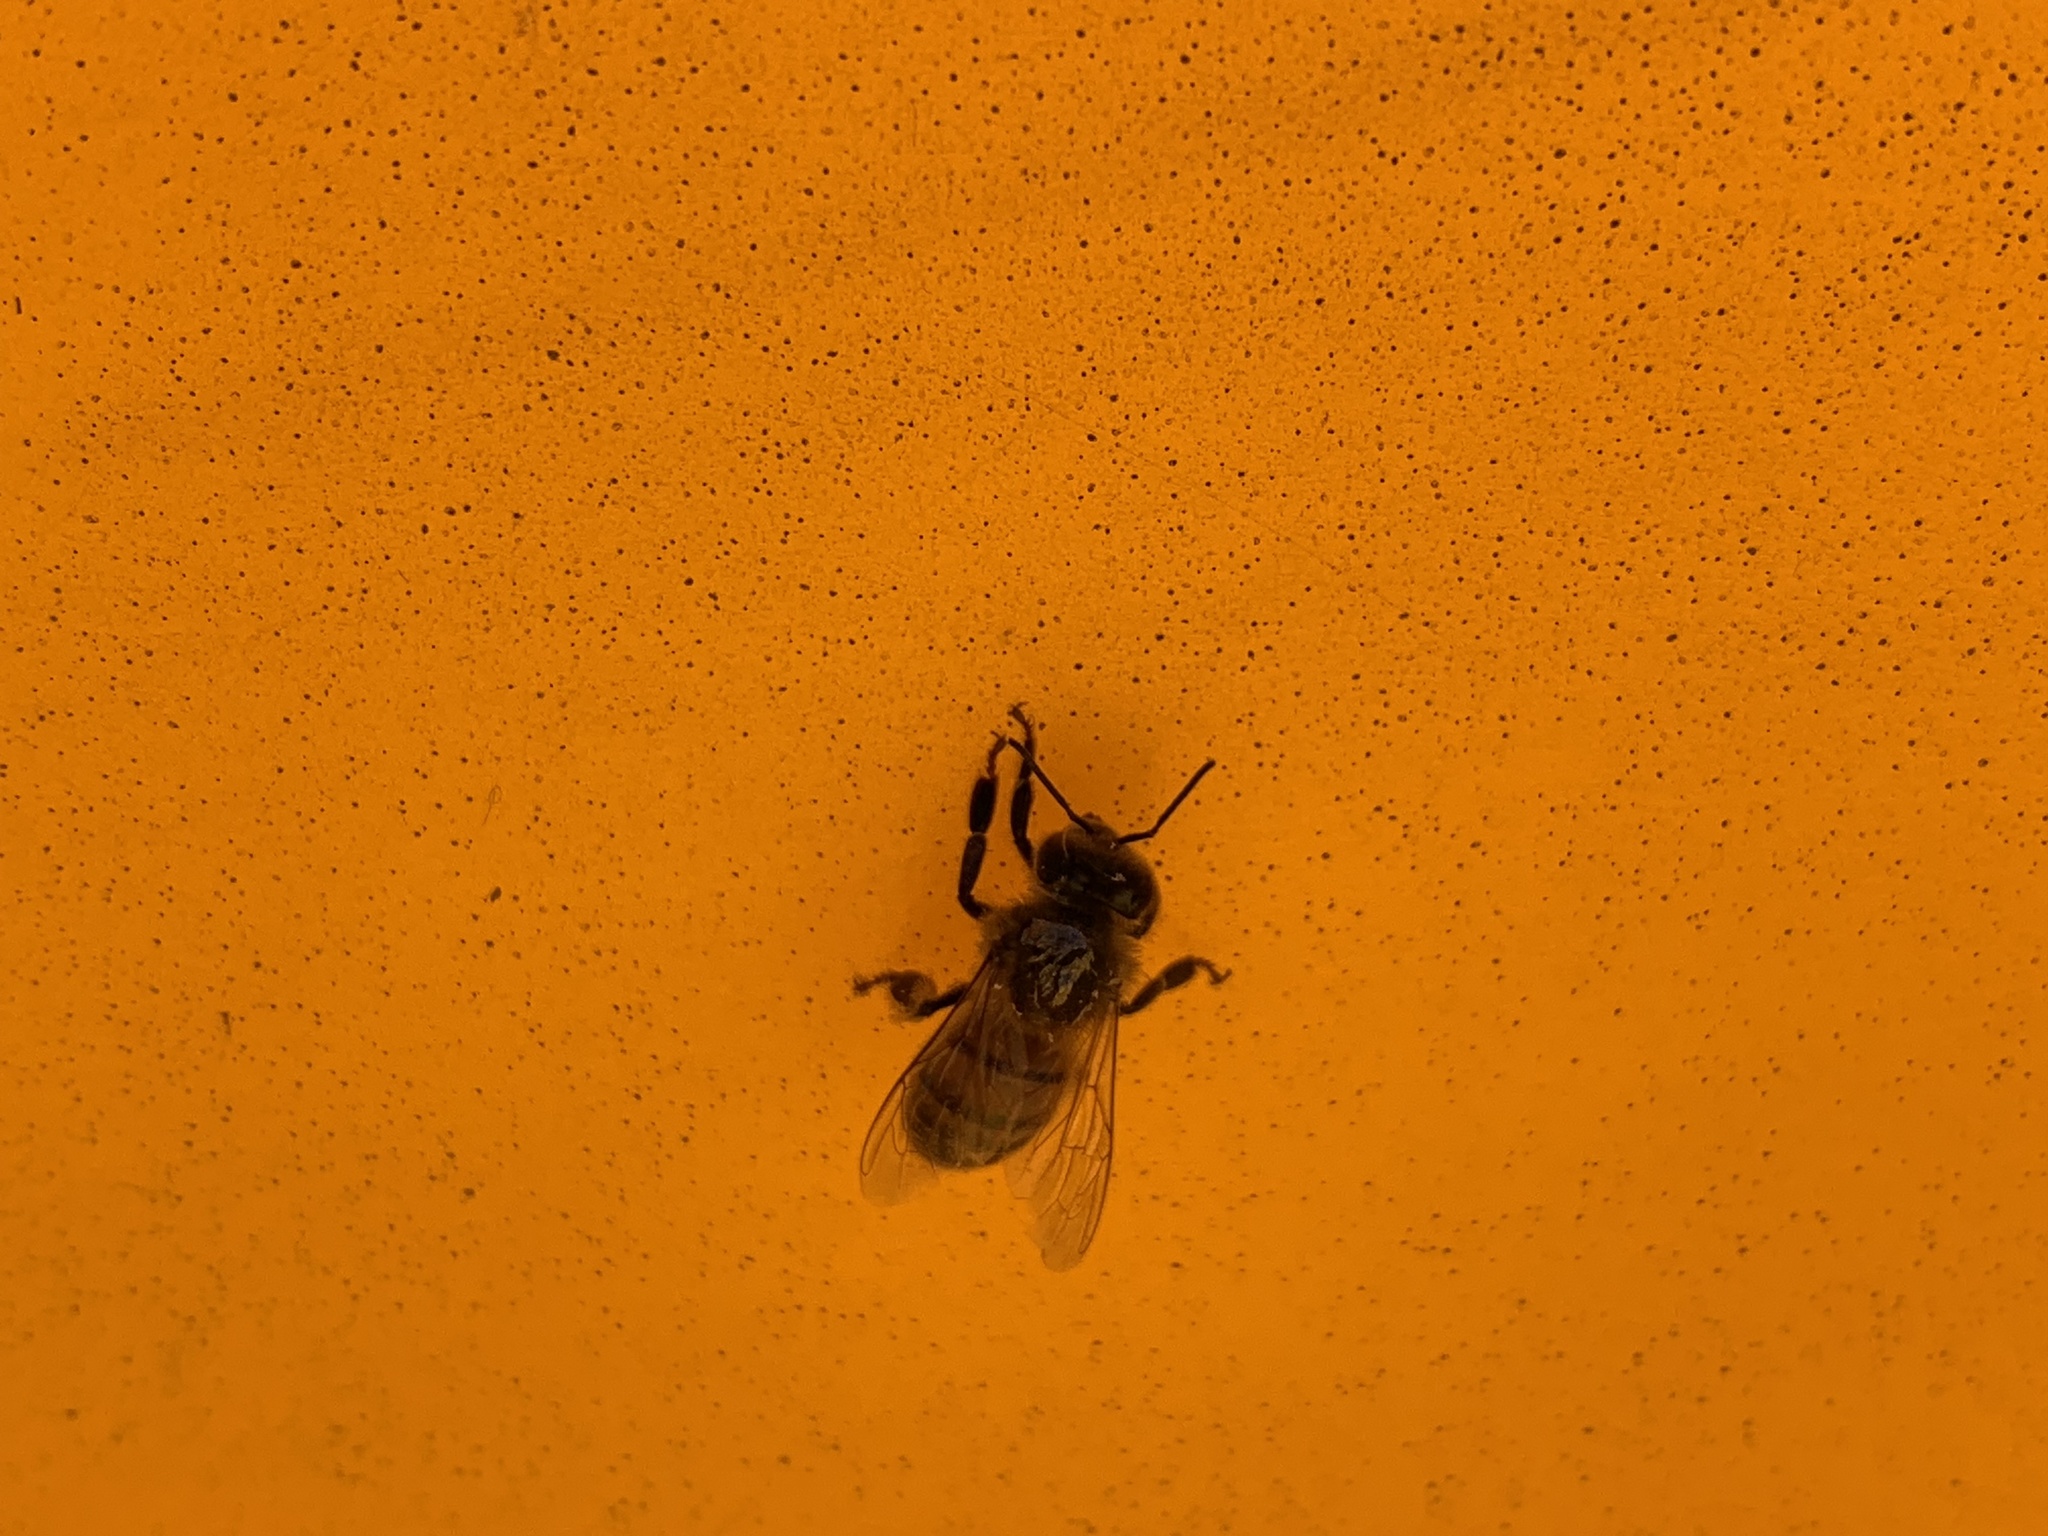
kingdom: Animalia
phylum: Arthropoda
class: Insecta
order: Hymenoptera
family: Apidae
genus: Apis
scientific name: Apis mellifera
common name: Honey bee
